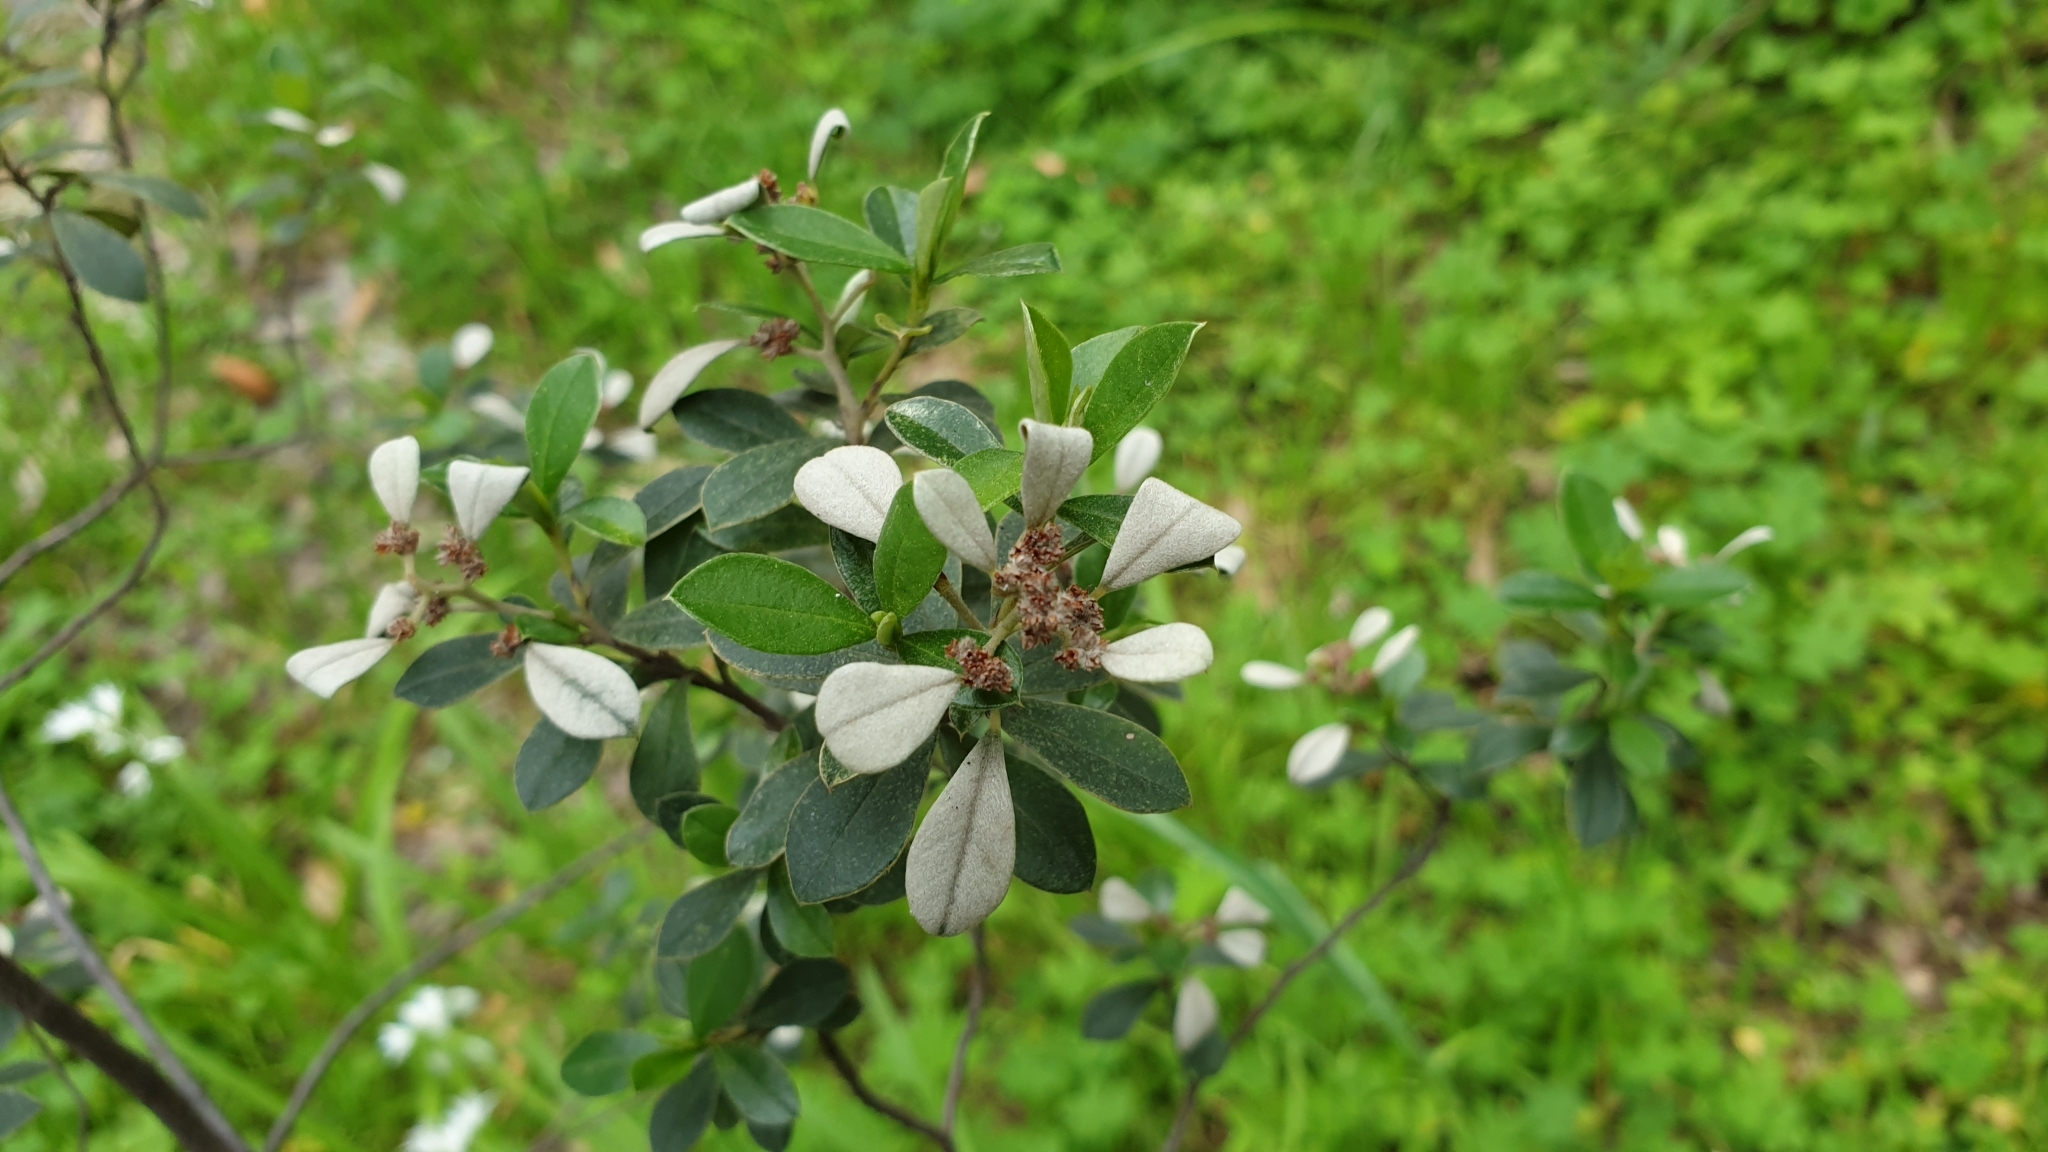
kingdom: Plantae
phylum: Tracheophyta
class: Magnoliopsida
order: Rosales
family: Rhamnaceae
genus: Spyridium
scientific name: Spyridium daphnoides
